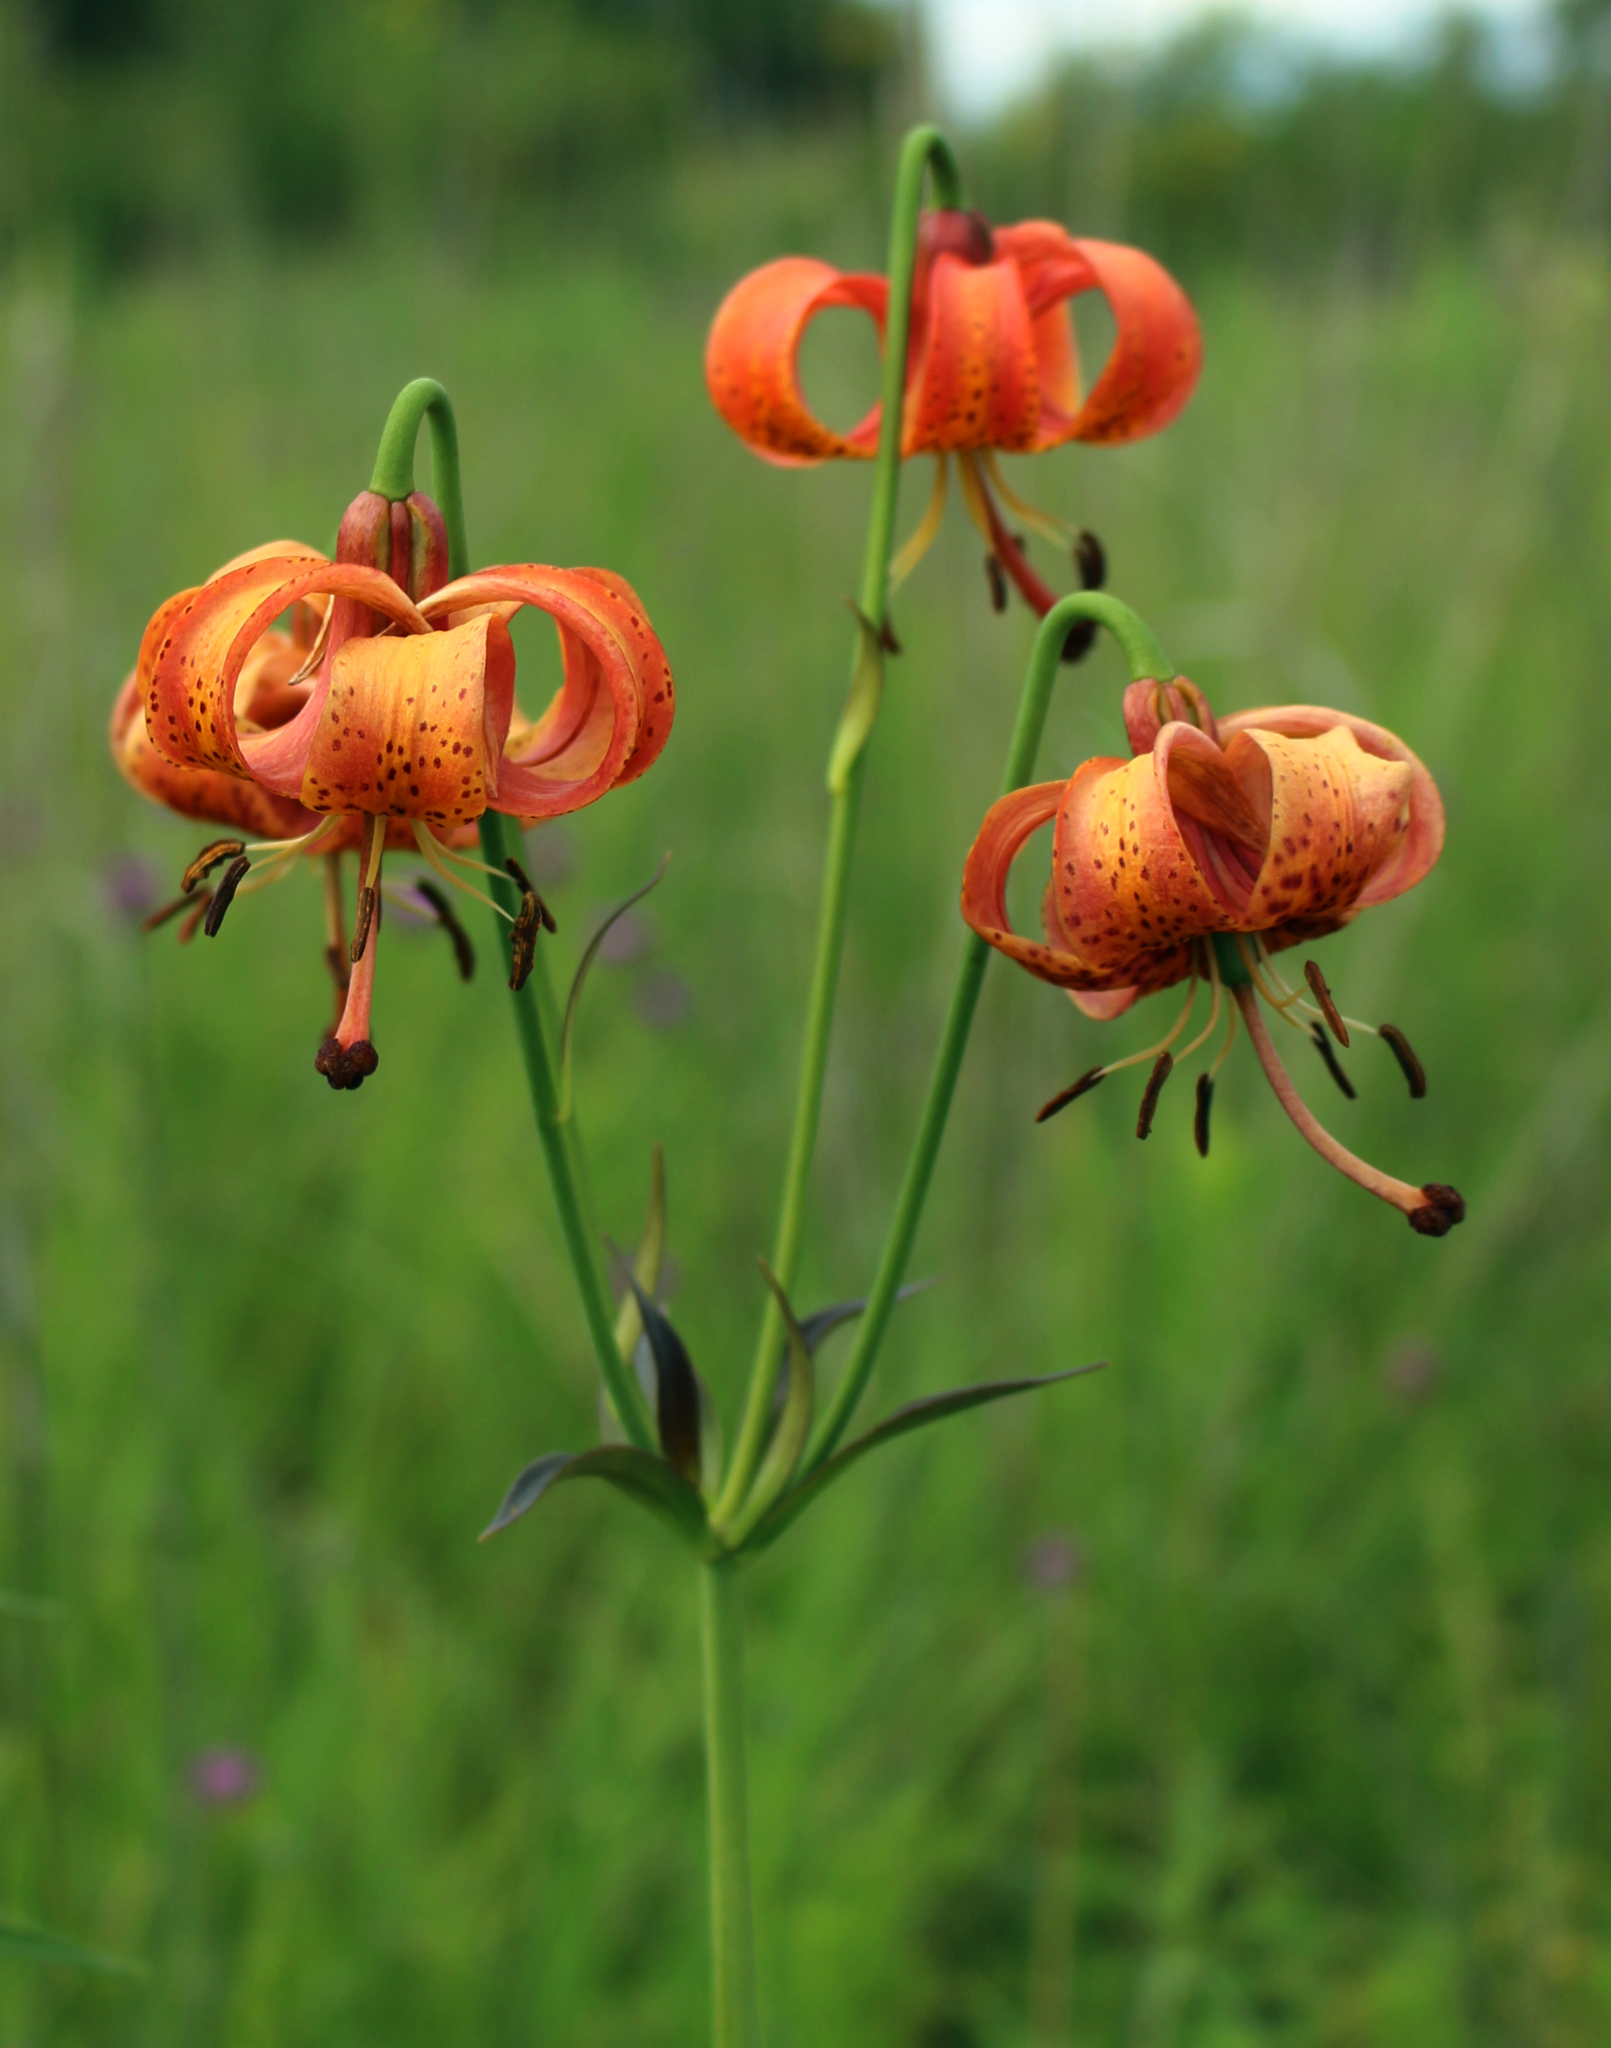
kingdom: Plantae
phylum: Tracheophyta
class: Liliopsida
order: Liliales
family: Liliaceae
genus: Lilium
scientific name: Lilium michiganense
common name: Michigan lily
